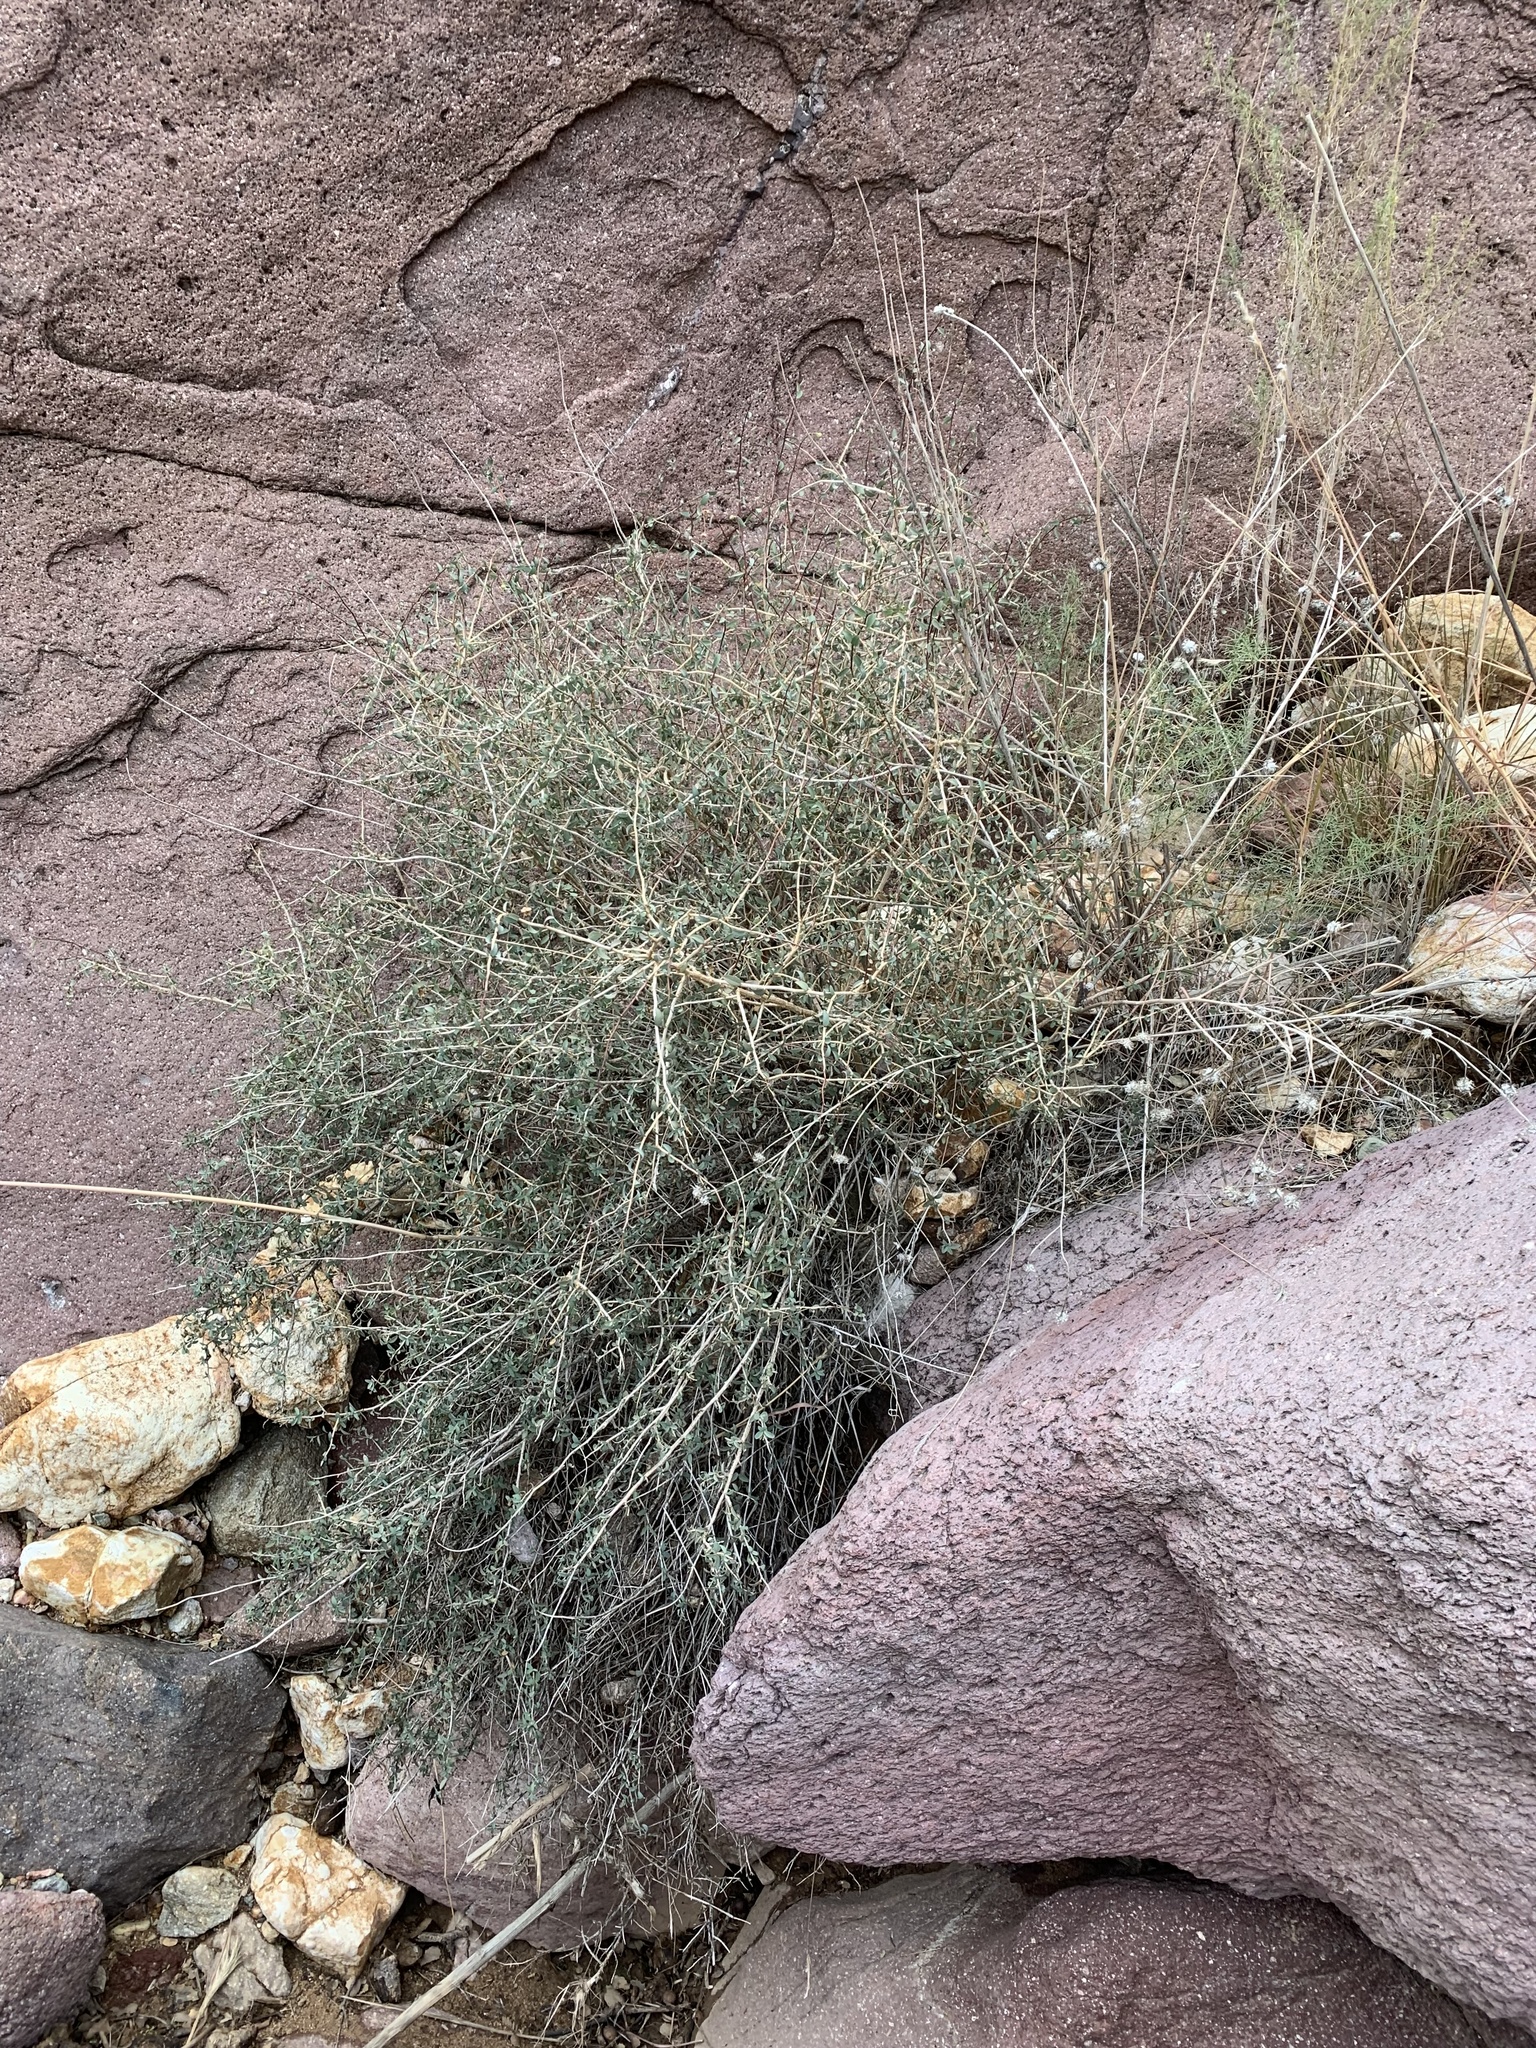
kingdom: Plantae
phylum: Tracheophyta
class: Magnoliopsida
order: Crossosomatales
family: Crossosomataceae
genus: Crossosoma
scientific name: Crossosoma bigelovii
